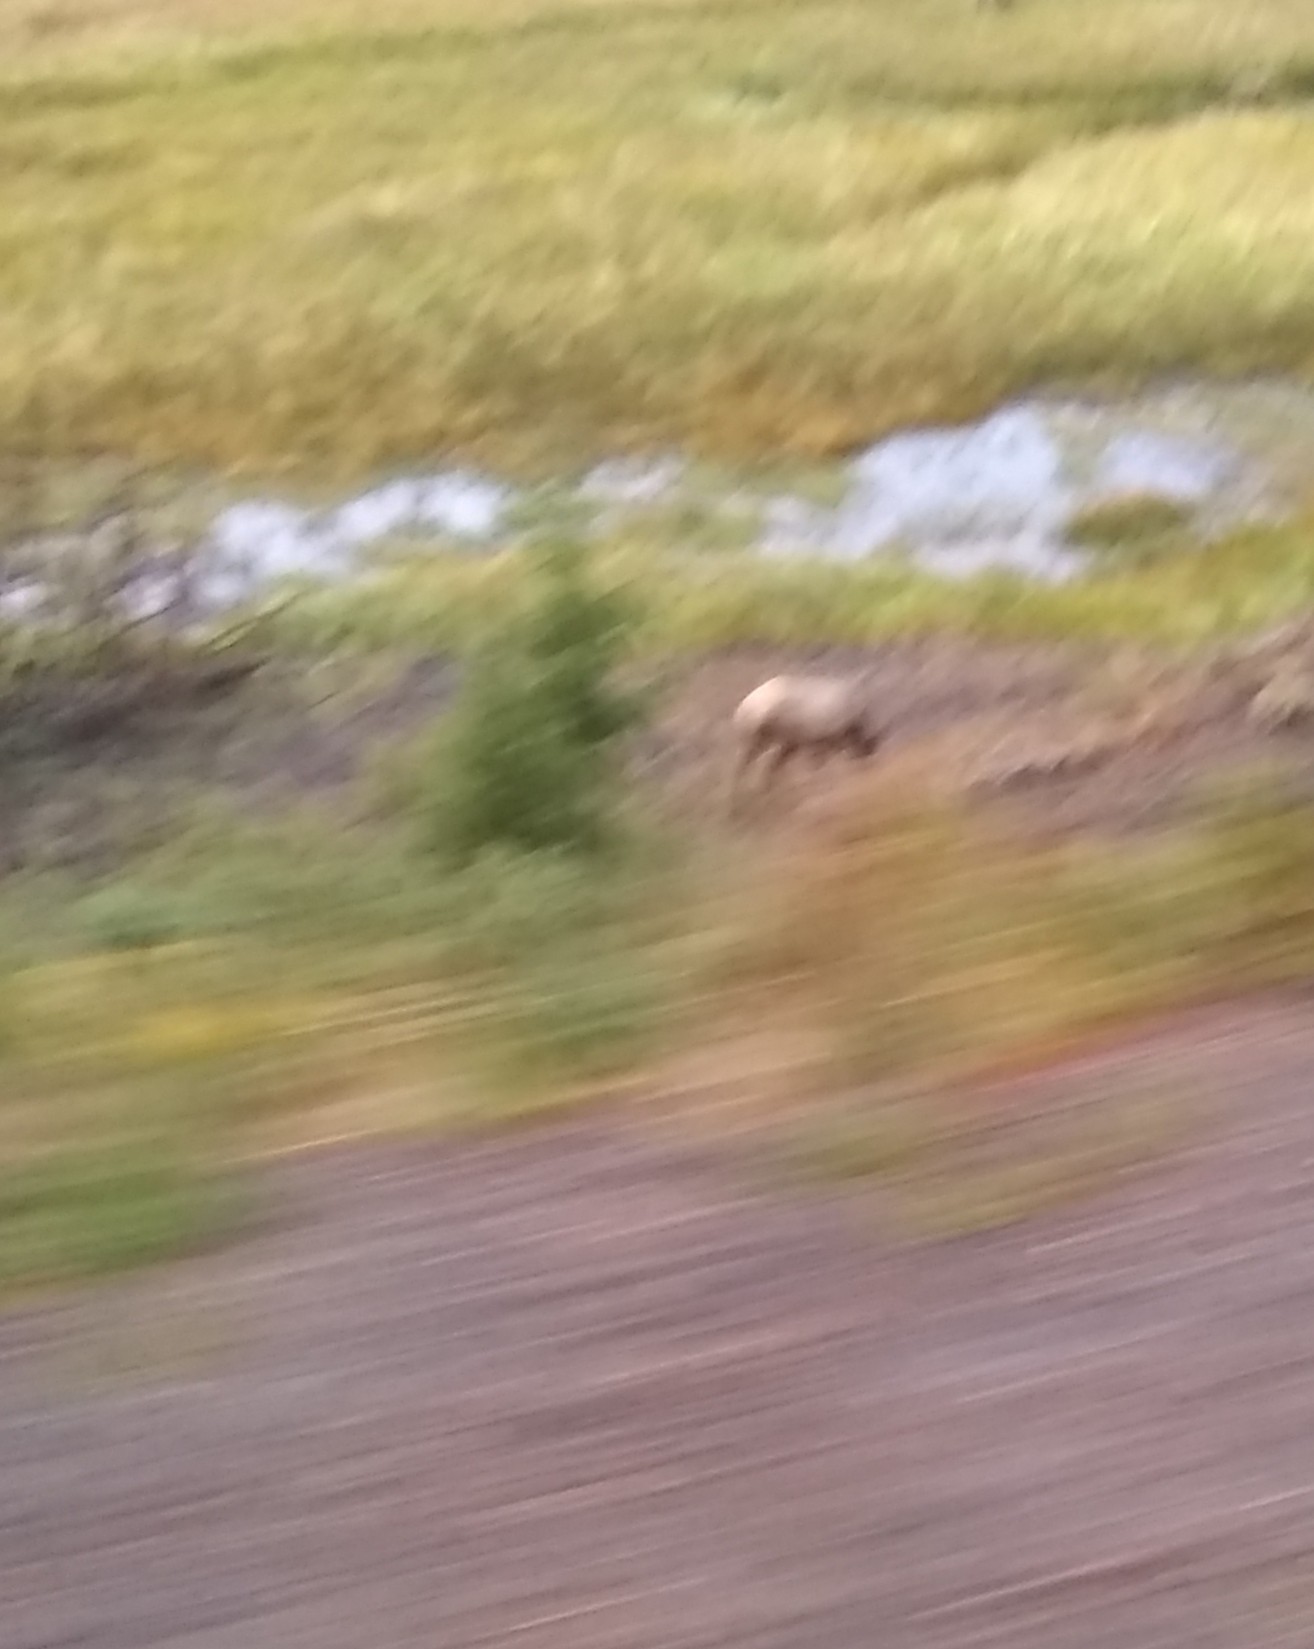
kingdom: Animalia
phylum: Chordata
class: Mammalia
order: Artiodactyla
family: Cervidae
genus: Cervus
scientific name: Cervus elaphus
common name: Red deer
